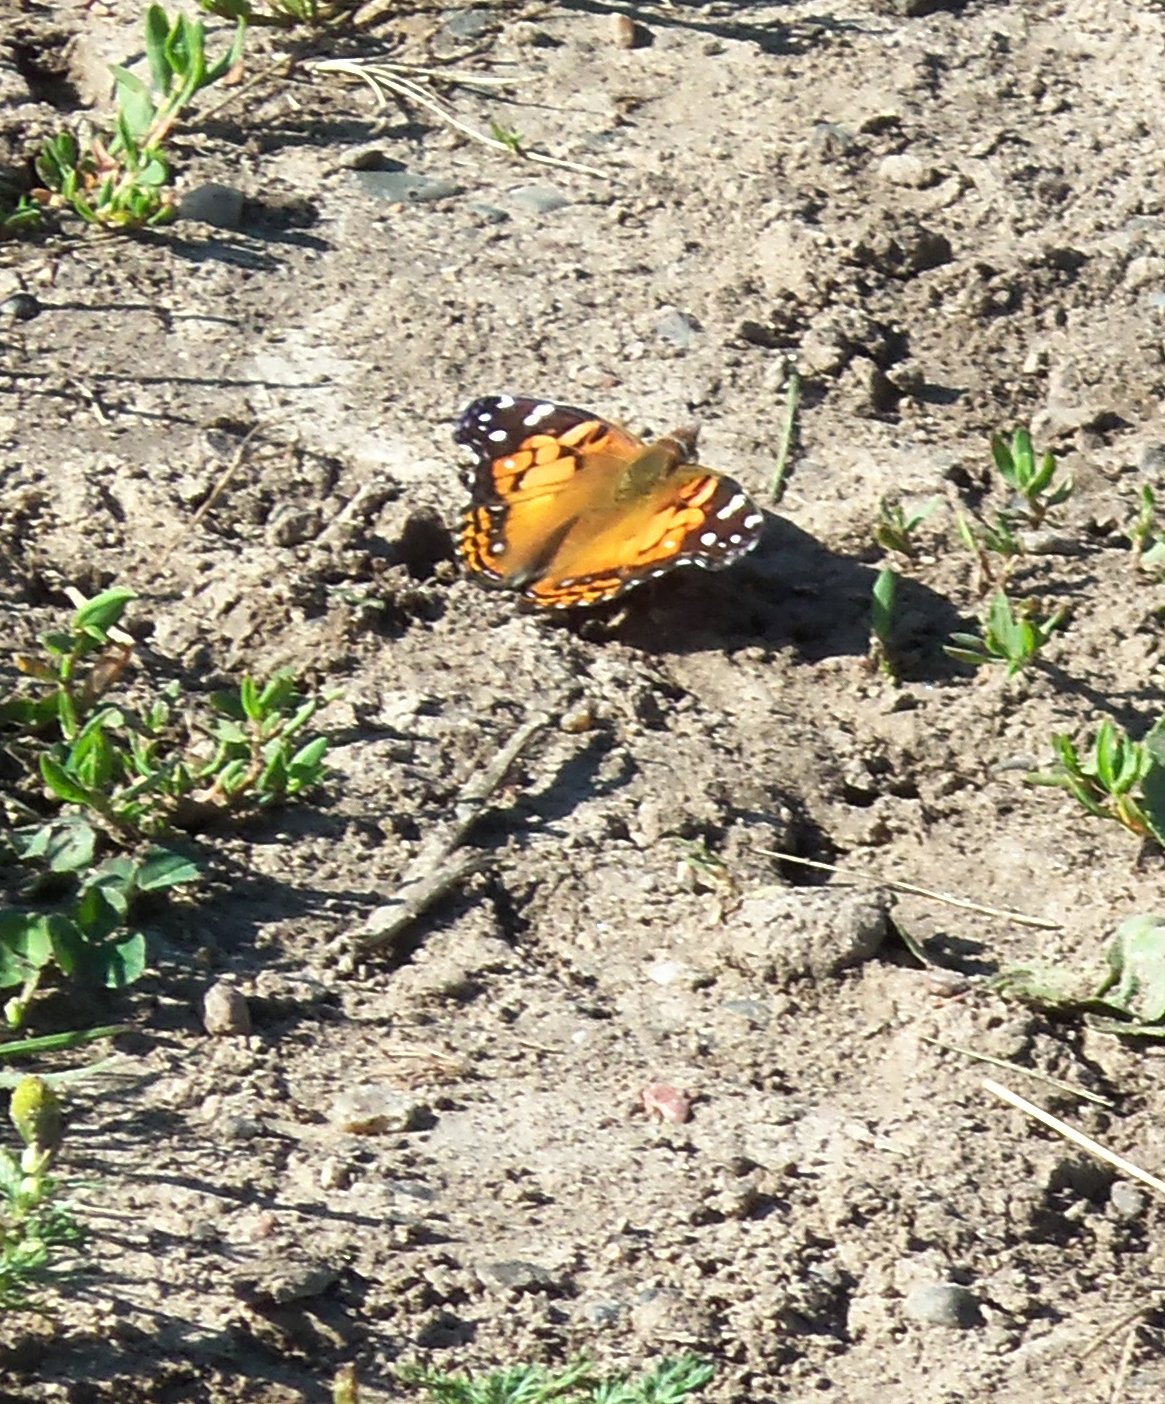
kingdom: Animalia
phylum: Arthropoda
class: Insecta
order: Lepidoptera
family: Nymphalidae
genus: Vanessa
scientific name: Vanessa virginiensis
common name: American lady
